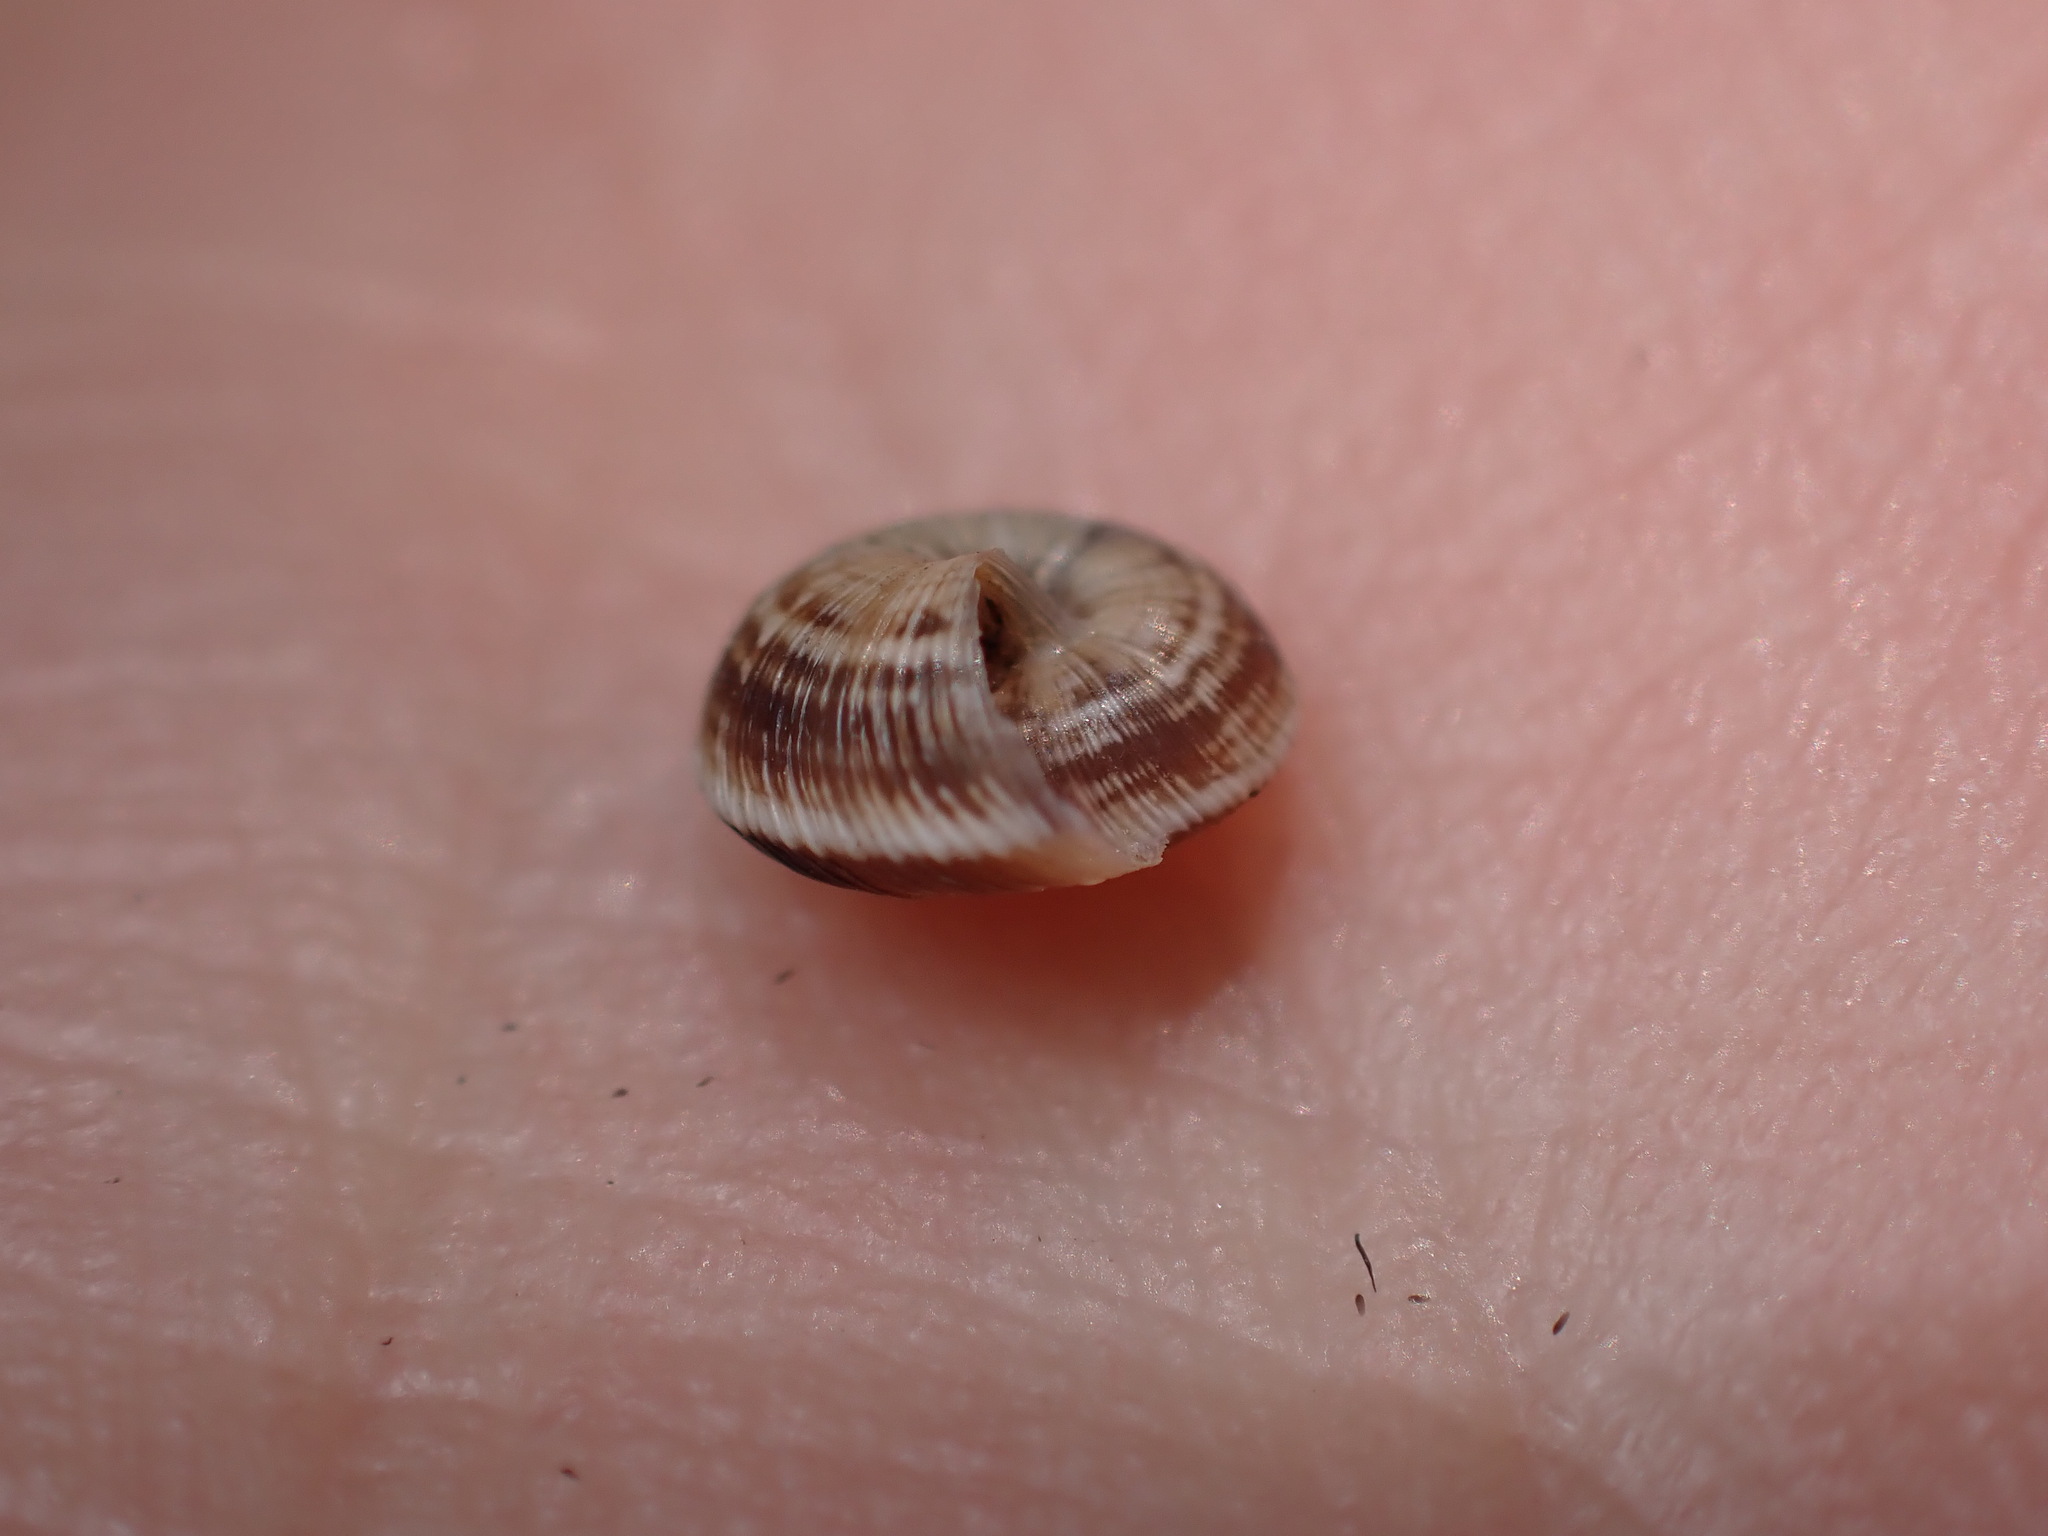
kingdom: Animalia
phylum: Mollusca
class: Gastropoda
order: Stylommatophora
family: Geomitridae
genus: Candidula
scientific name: Candidula rugosiuscula
